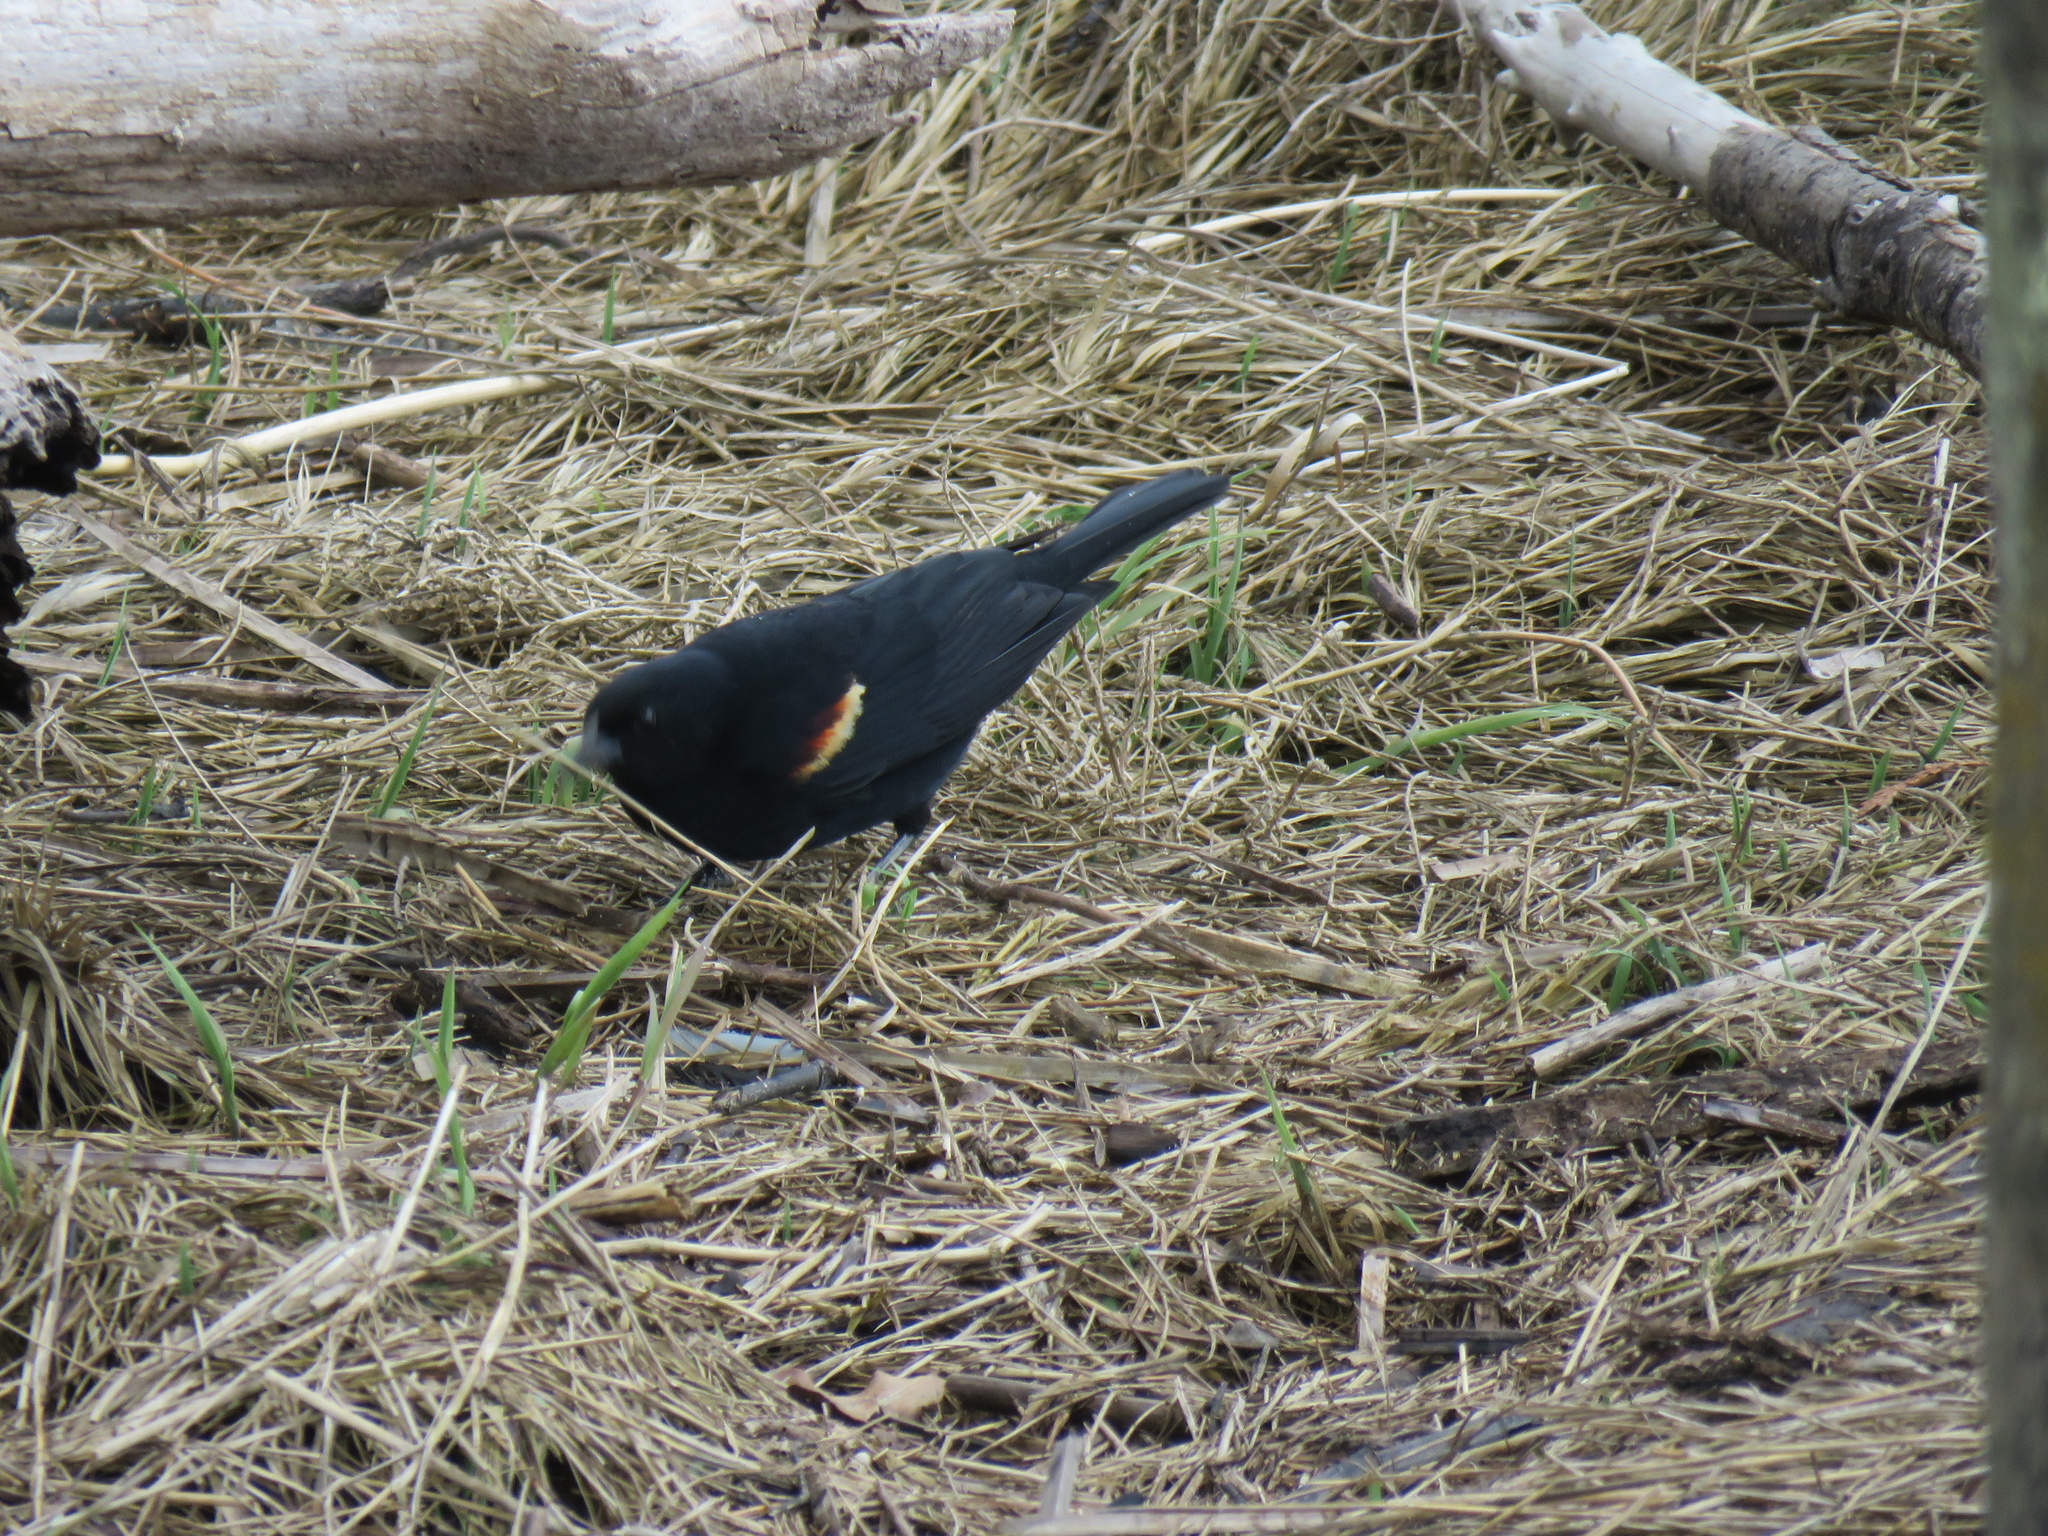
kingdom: Animalia
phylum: Chordata
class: Aves
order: Passeriformes
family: Icteridae
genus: Agelaius
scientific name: Agelaius phoeniceus
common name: Red-winged blackbird
